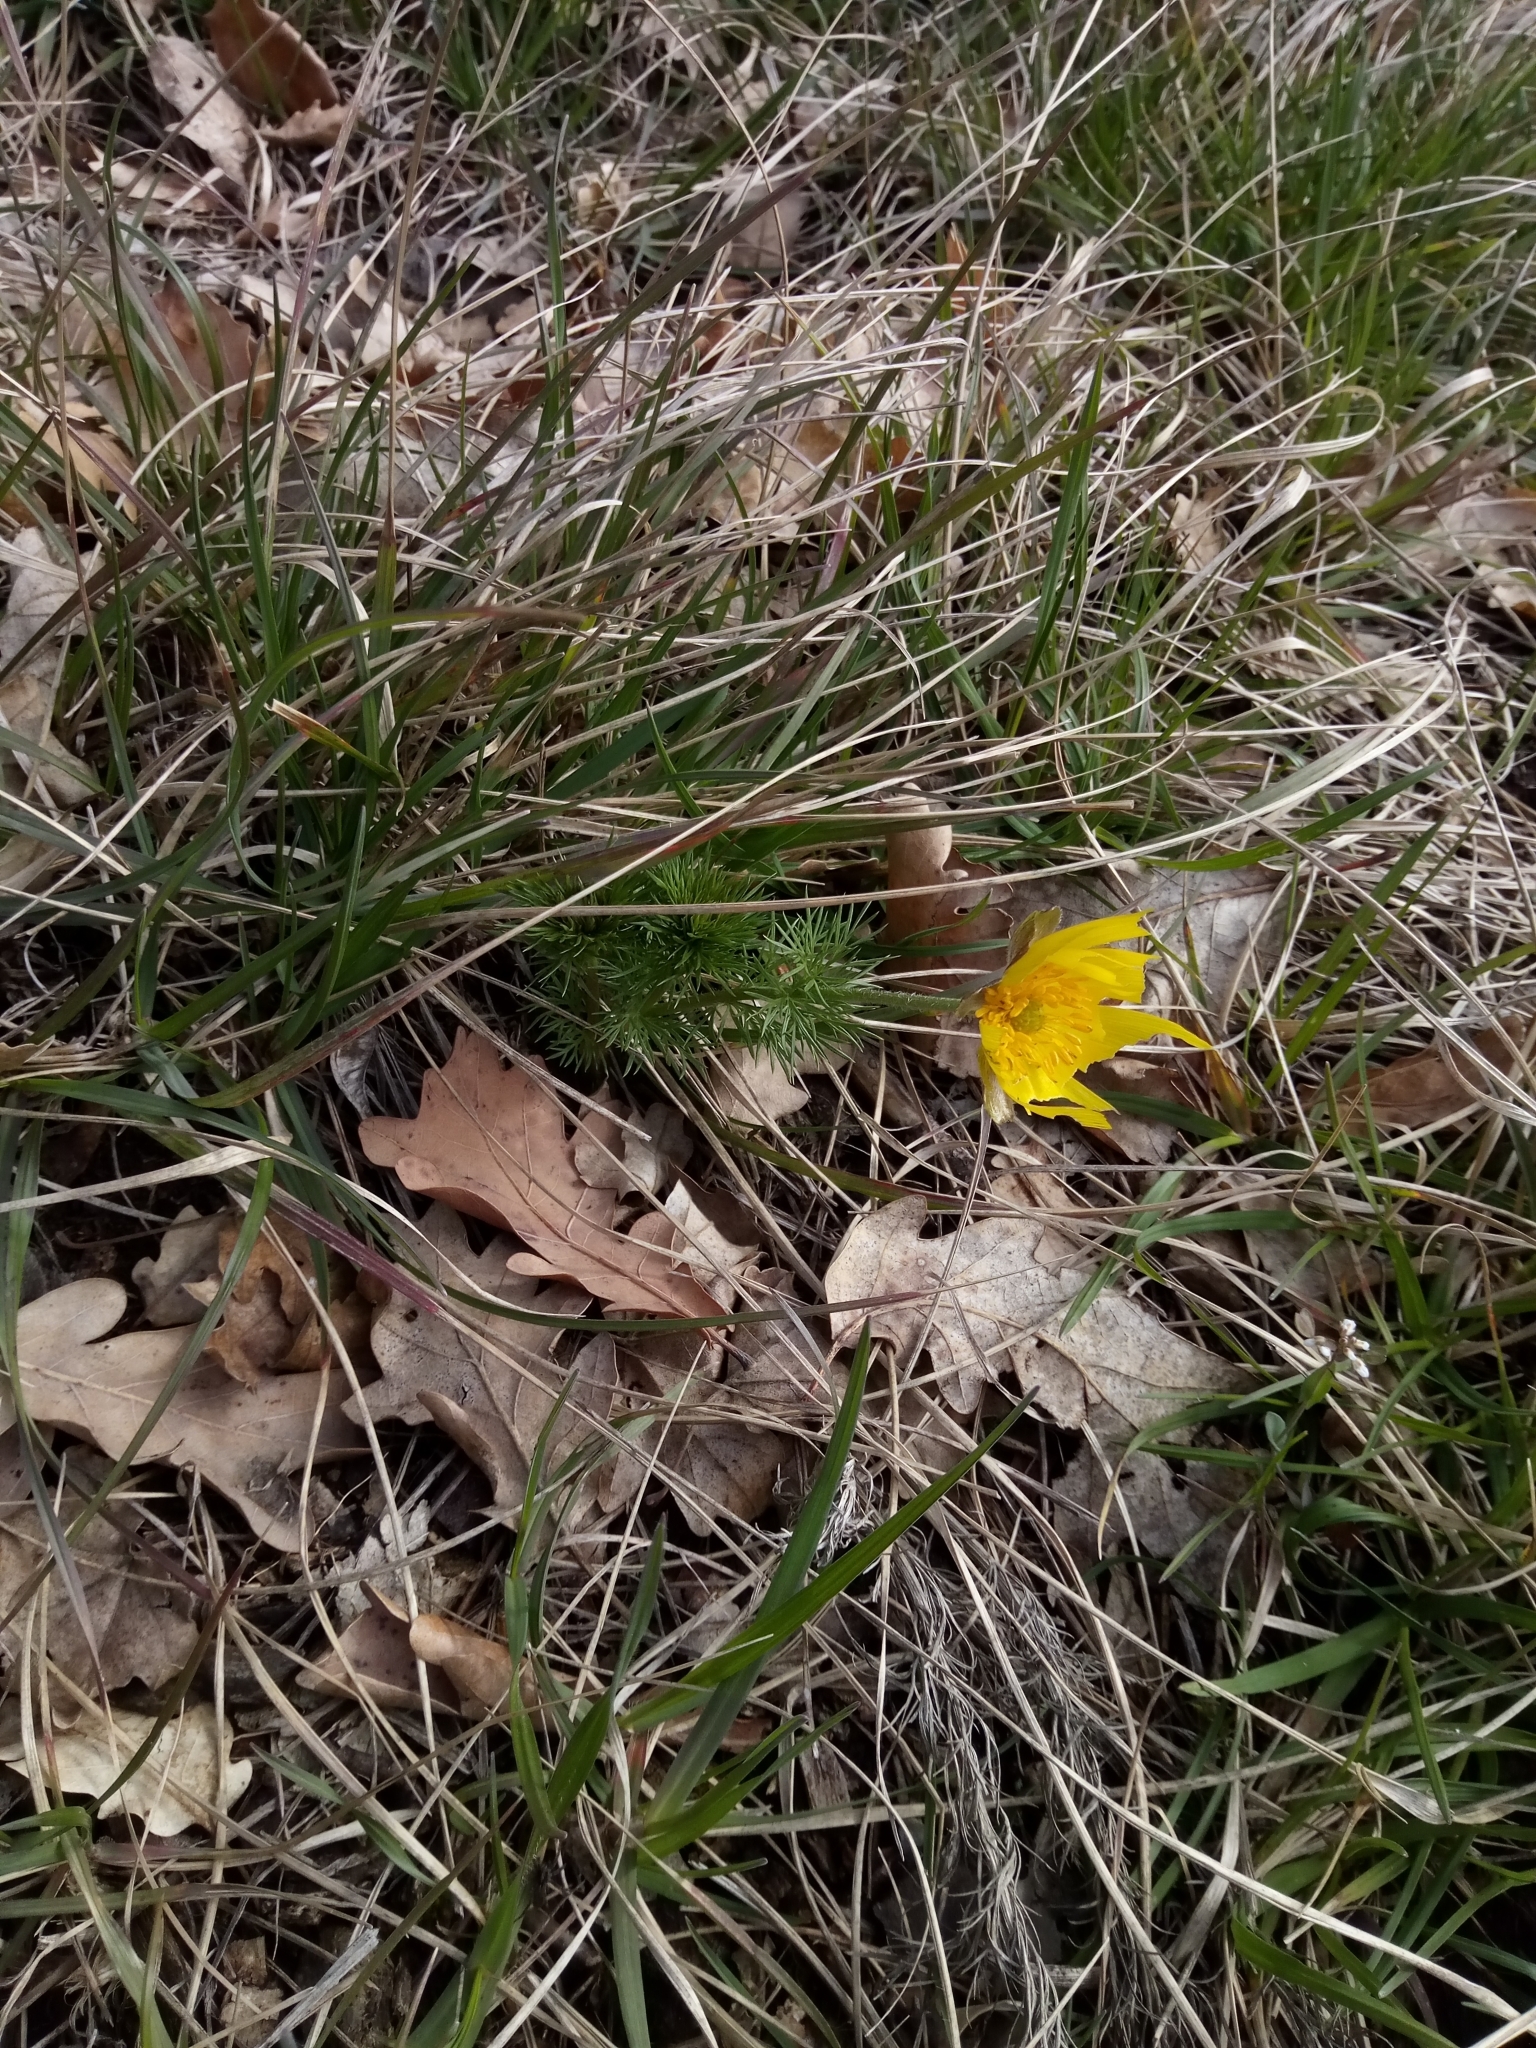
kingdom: Plantae
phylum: Tracheophyta
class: Magnoliopsida
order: Ranunculales
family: Ranunculaceae
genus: Adonis
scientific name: Adonis vernalis
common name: Yellow pheasants-eye
